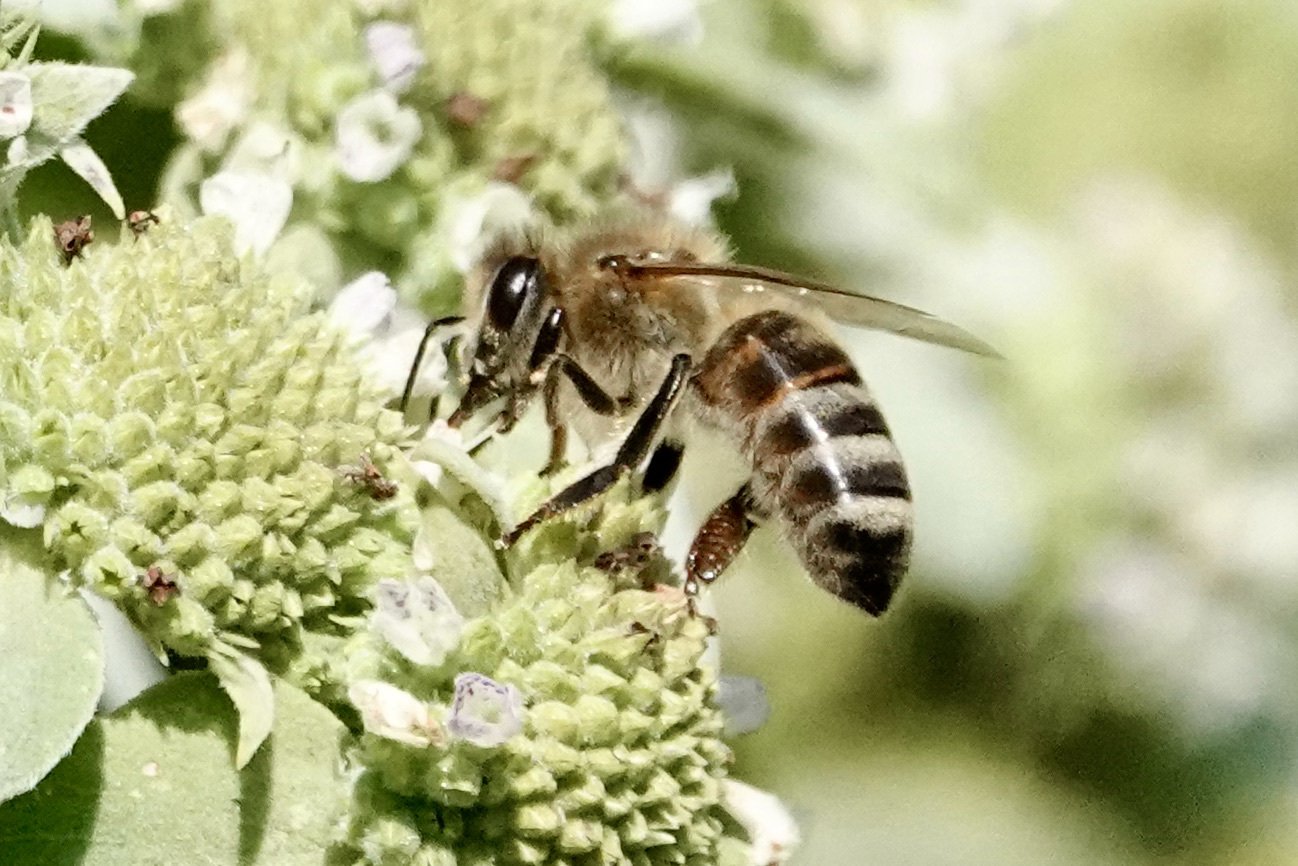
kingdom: Animalia
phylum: Arthropoda
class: Insecta
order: Hymenoptera
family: Apidae
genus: Apis
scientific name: Apis mellifera
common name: Honey bee
